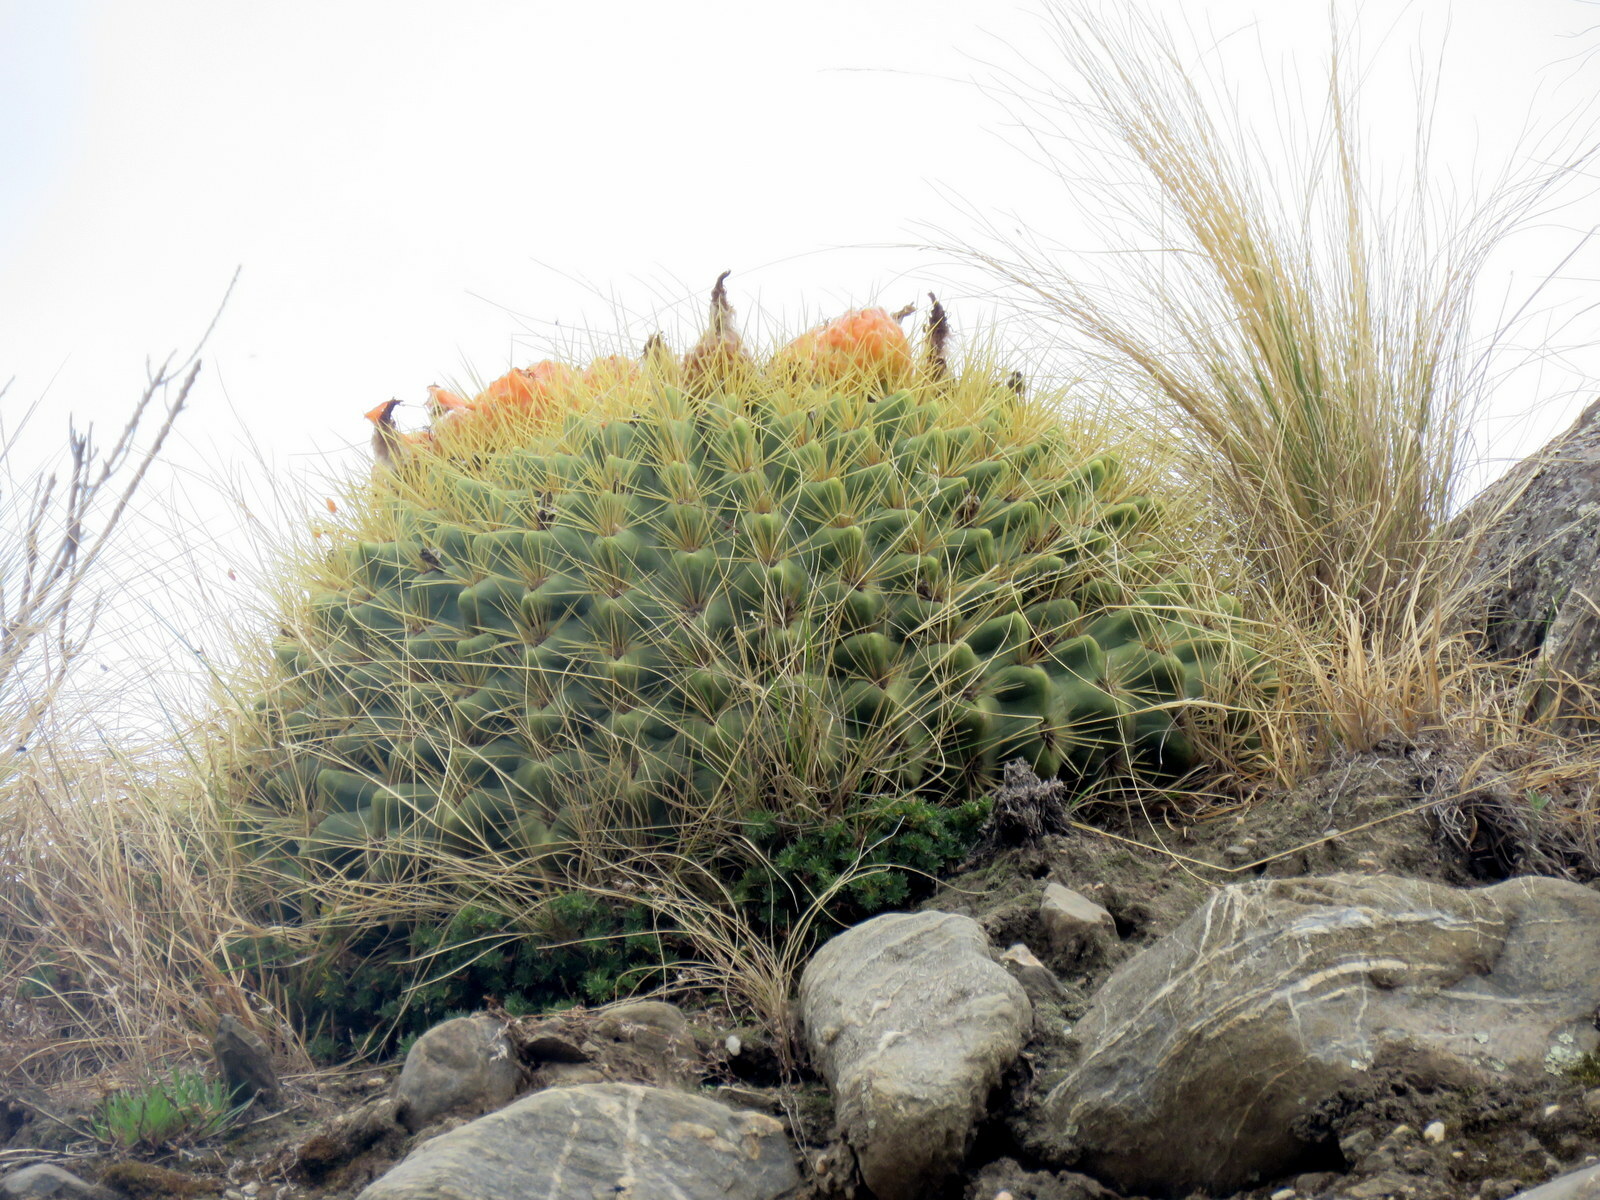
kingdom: Plantae
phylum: Tracheophyta
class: Magnoliopsida
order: Caryophyllales
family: Cactaceae
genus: Soehrensia
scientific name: Soehrensia bruchii
